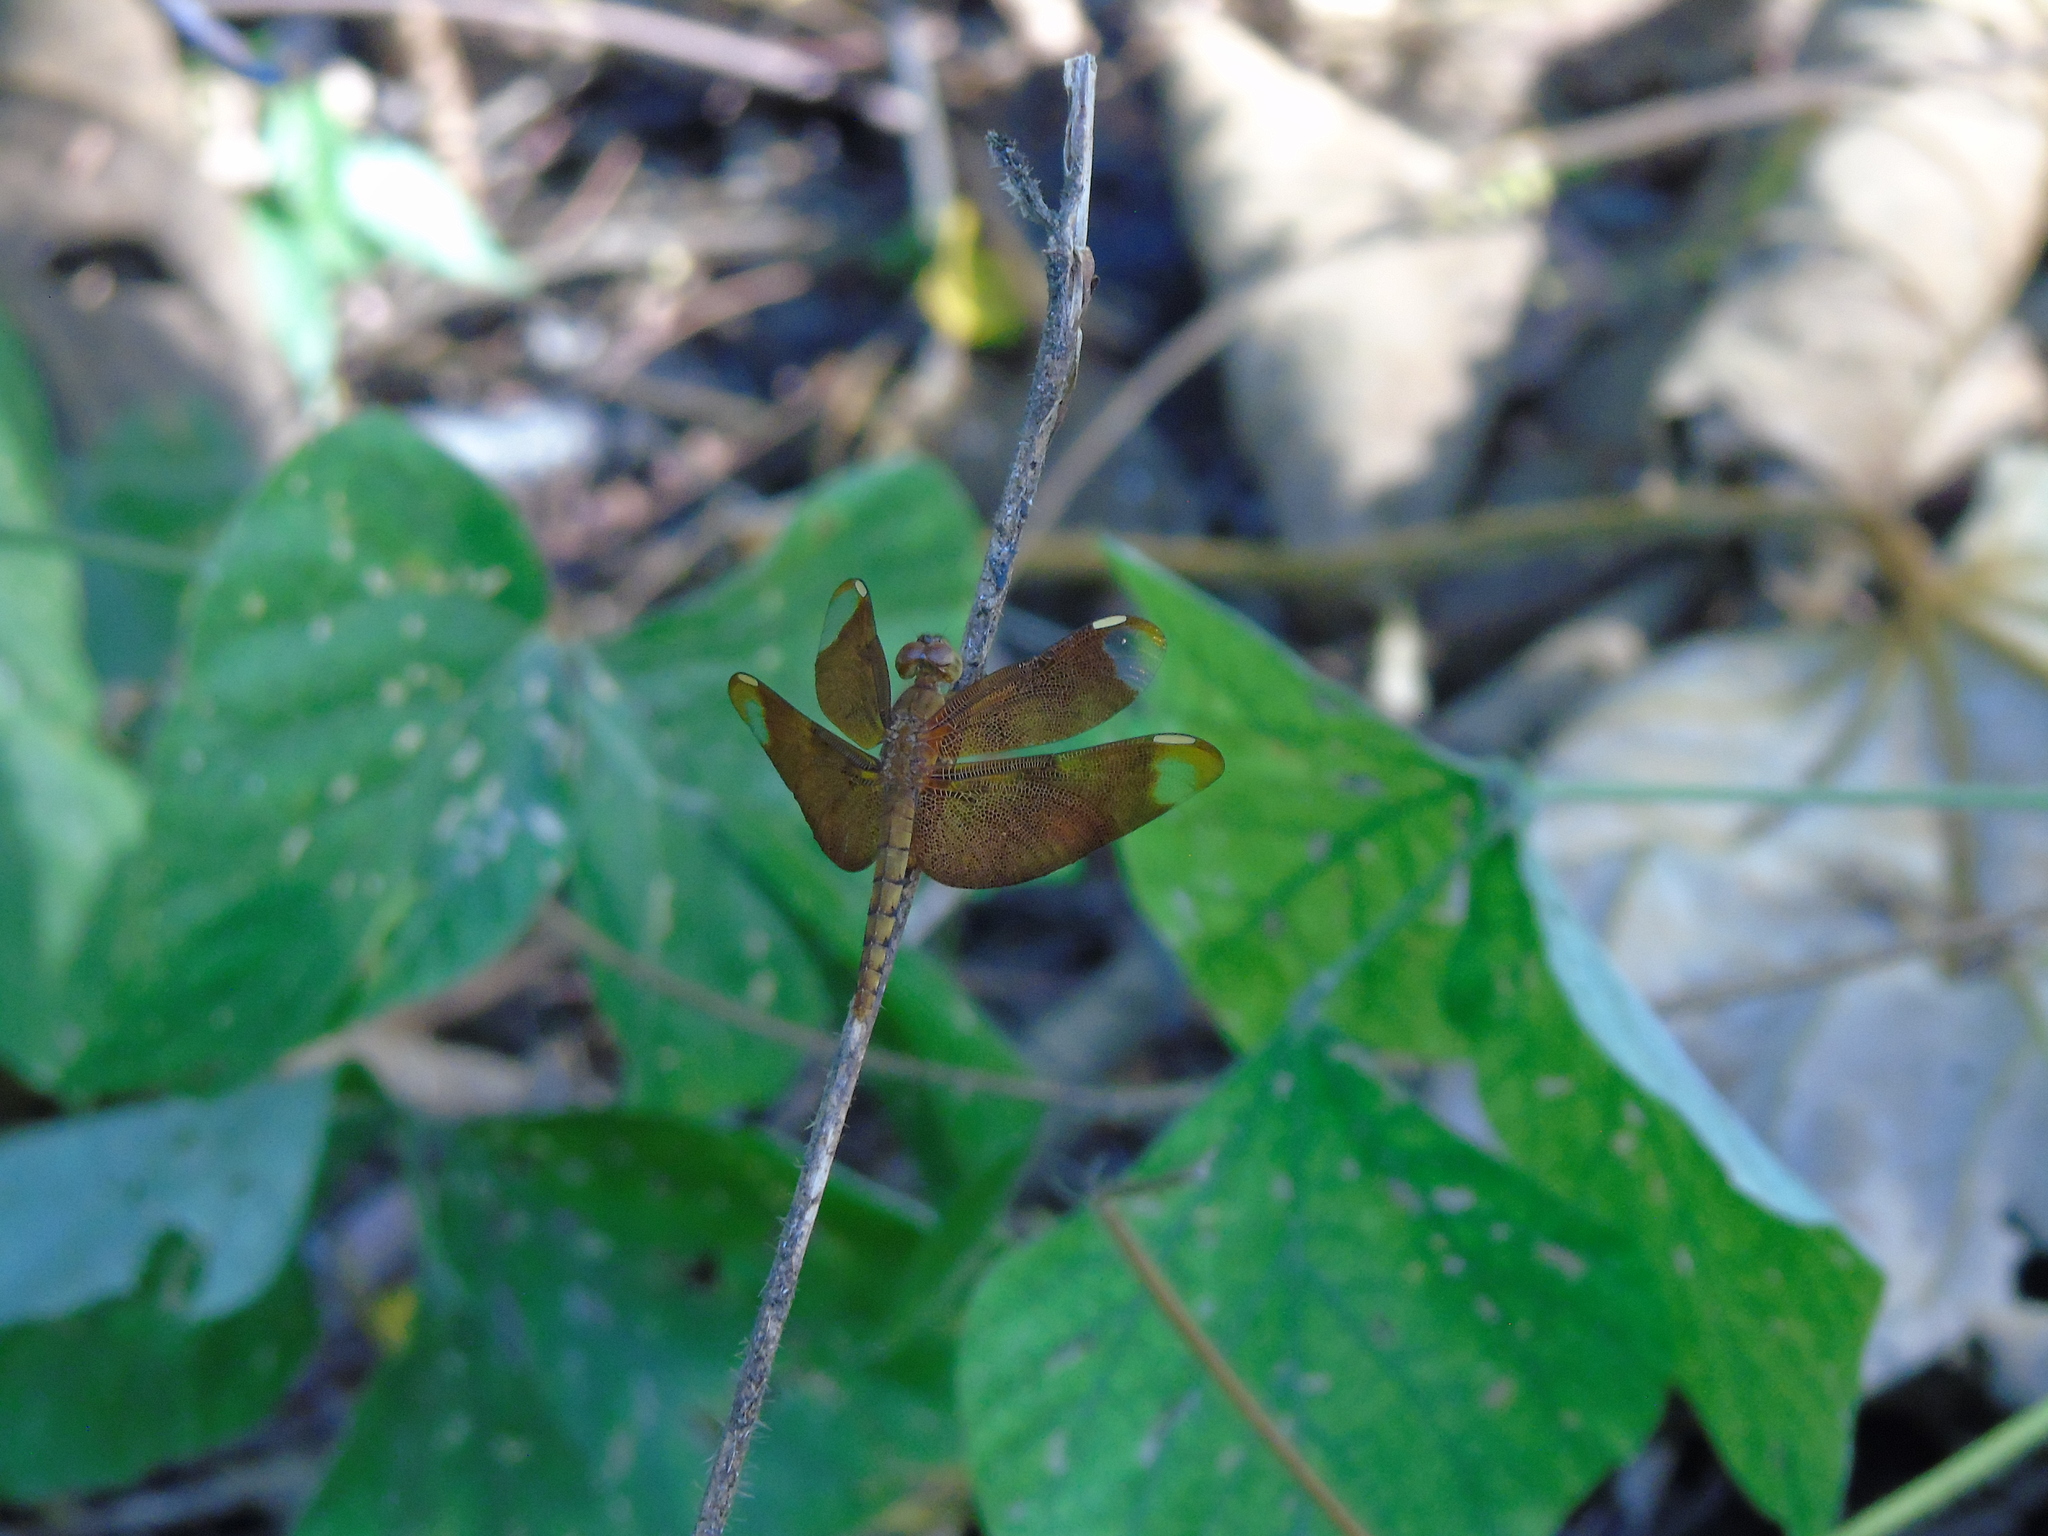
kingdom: Animalia
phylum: Arthropoda
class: Insecta
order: Odonata
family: Libellulidae
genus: Neurothemis
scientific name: Neurothemis fulvia
